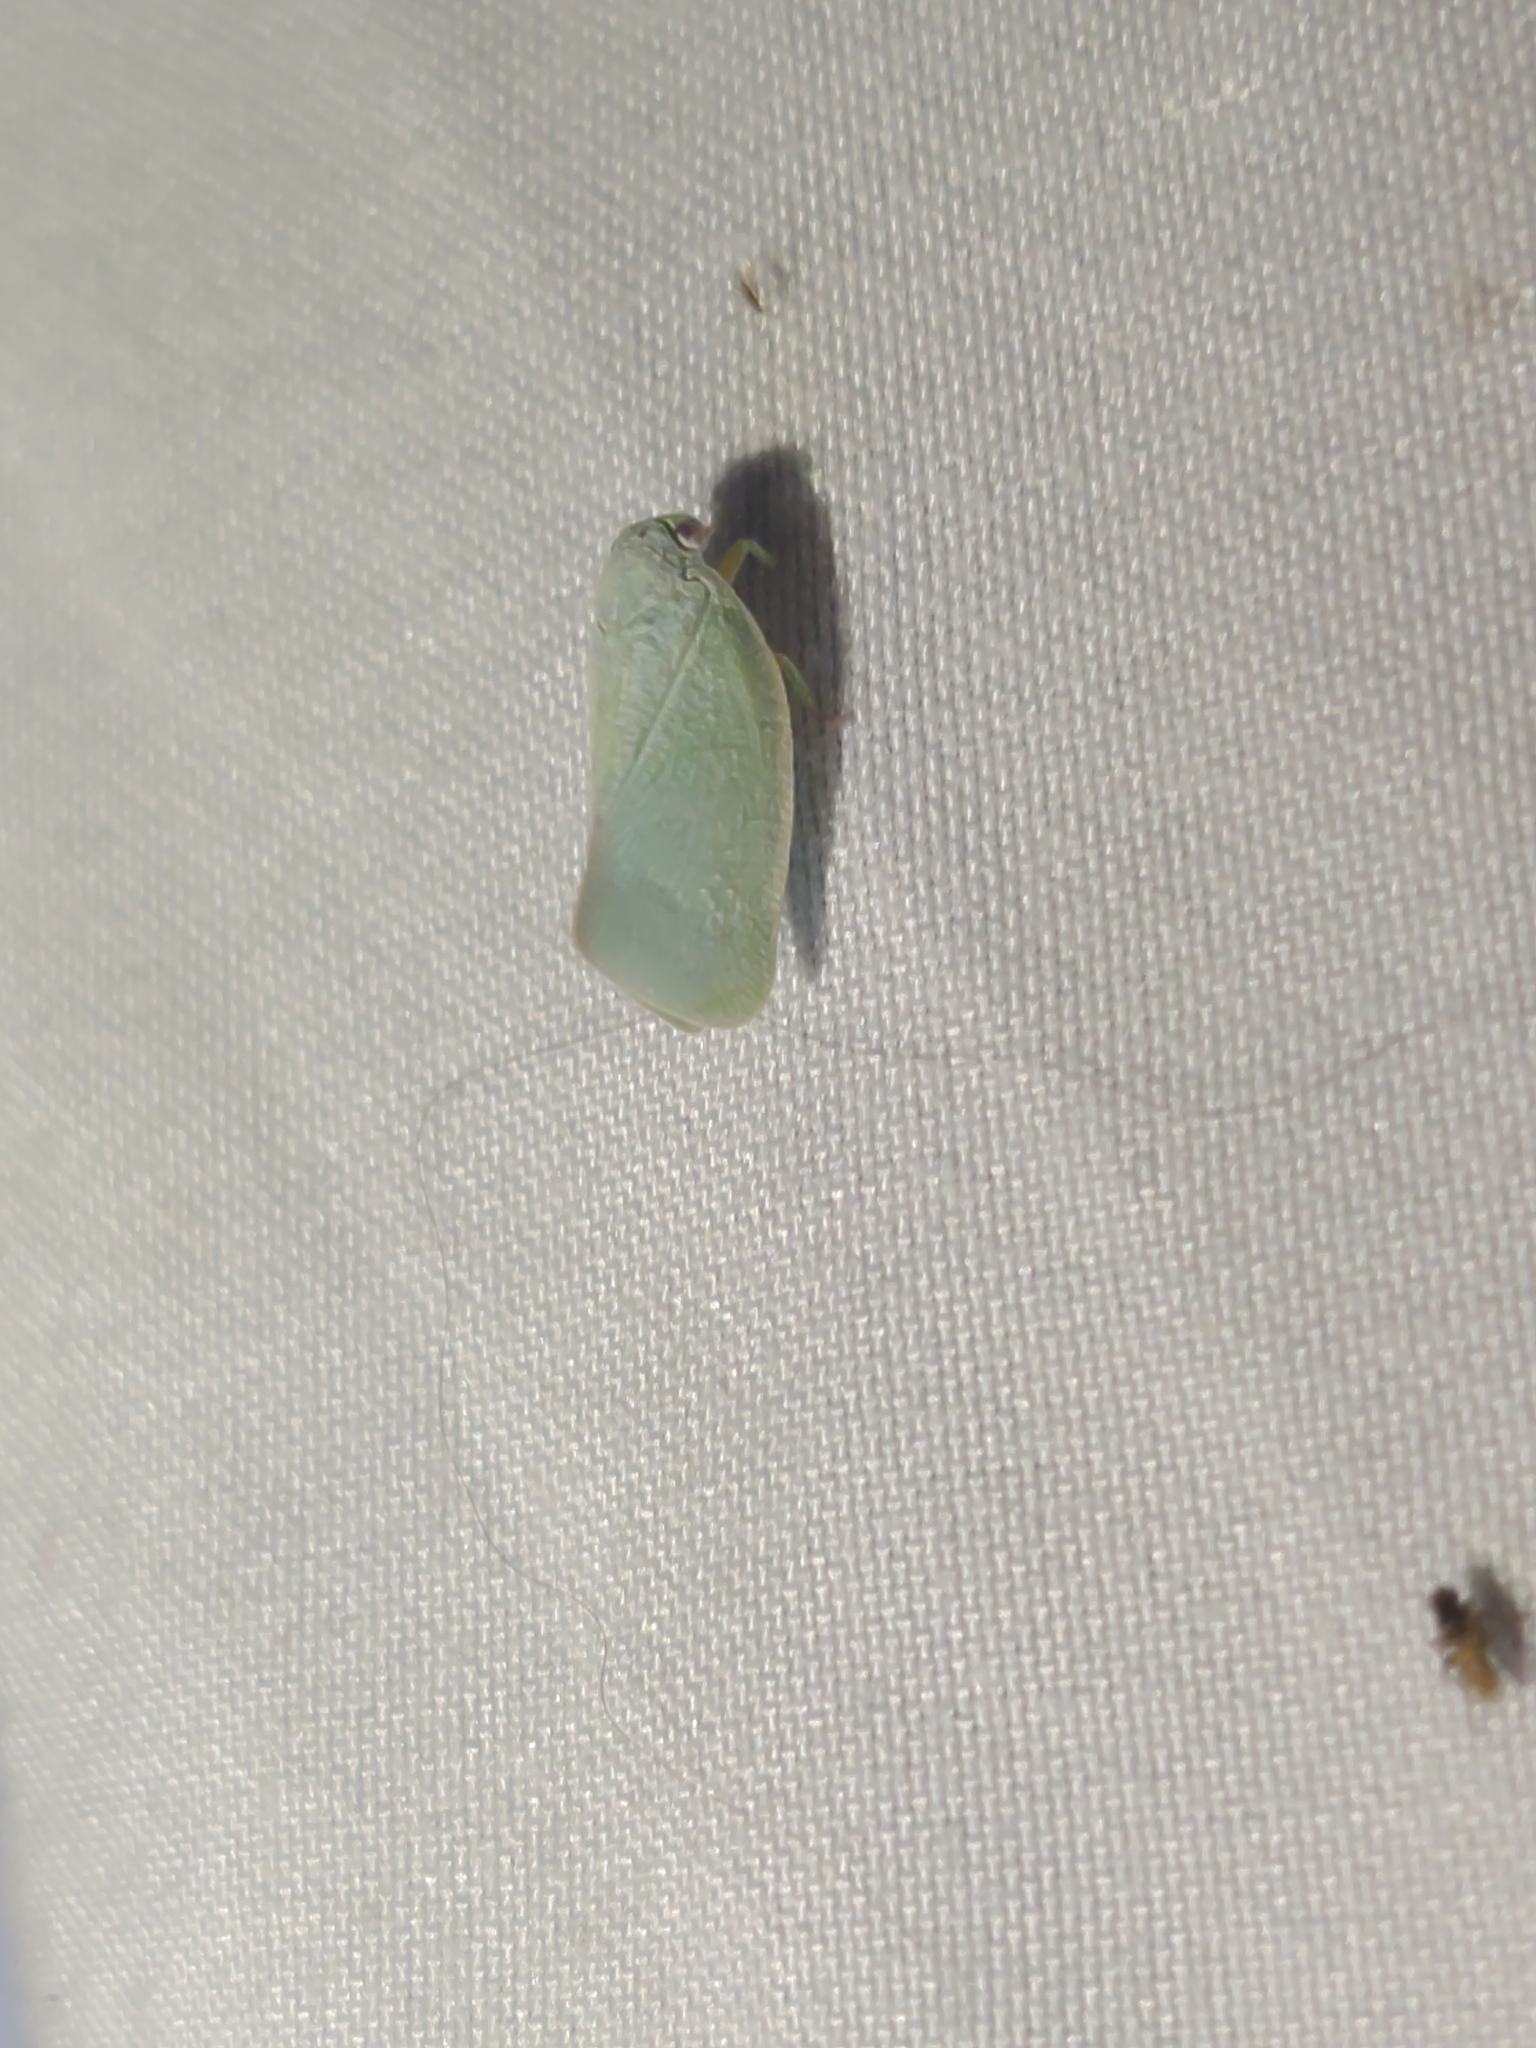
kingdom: Animalia
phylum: Arthropoda
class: Insecta
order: Hemiptera
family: Flatidae
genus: Flatormenis
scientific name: Flatormenis proxima
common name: Northern flatid planthopper
